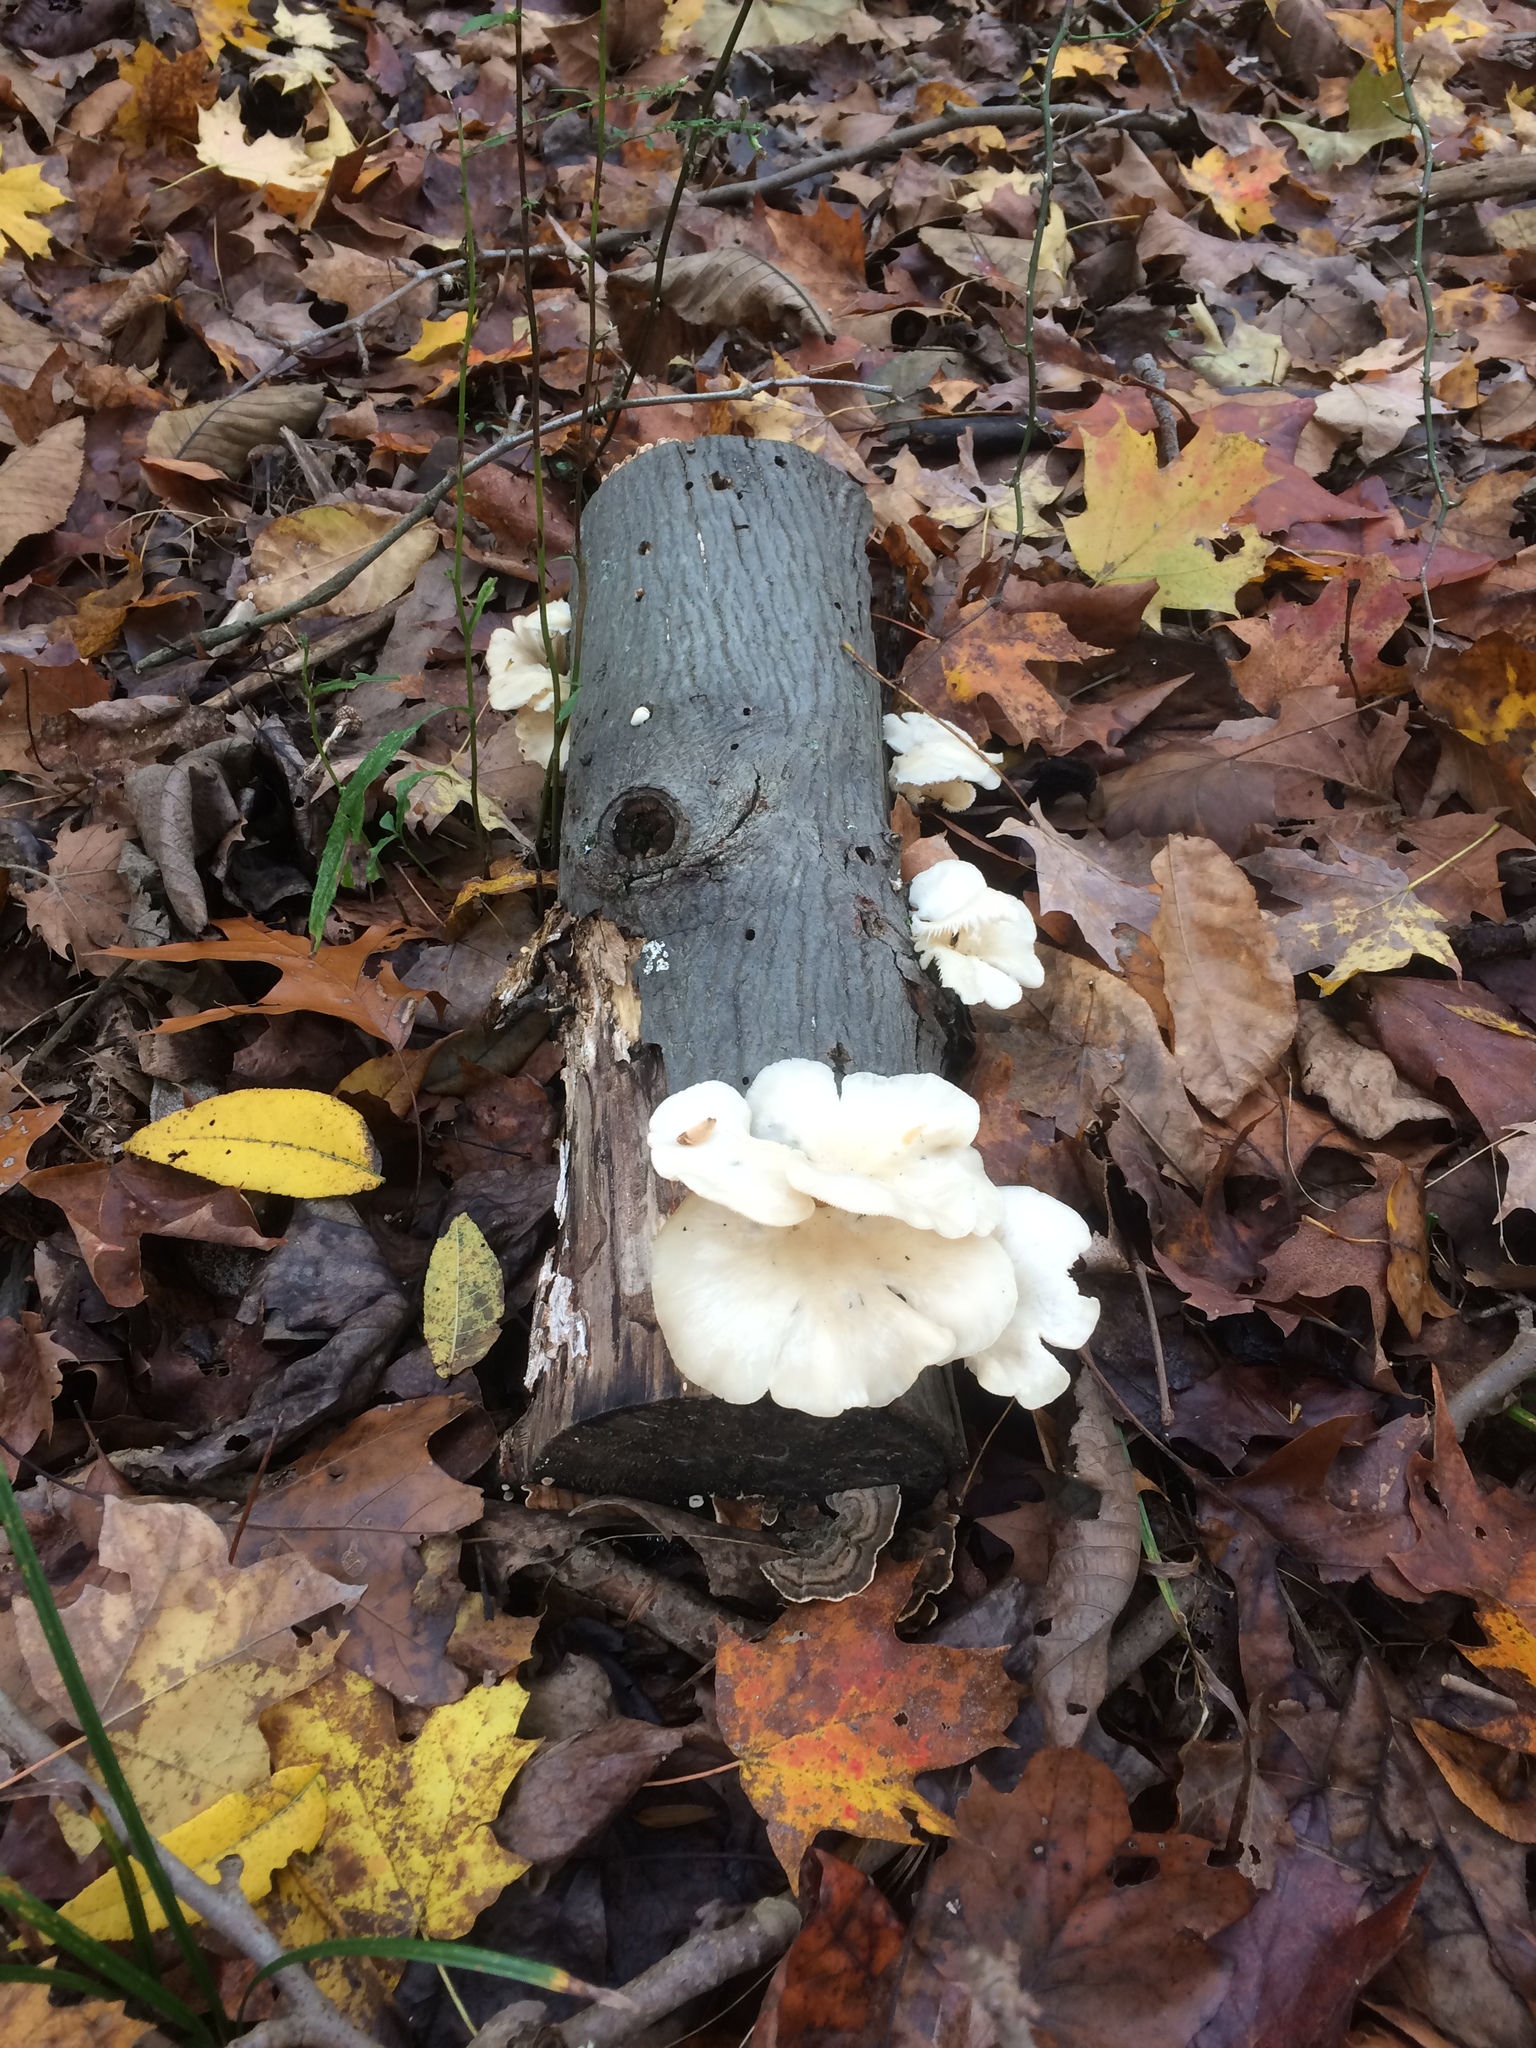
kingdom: Fungi
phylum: Basidiomycota
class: Agaricomycetes
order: Agaricales
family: Pleurotaceae
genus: Pleurotus
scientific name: Pleurotus pulmonarius
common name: Pale oyster
